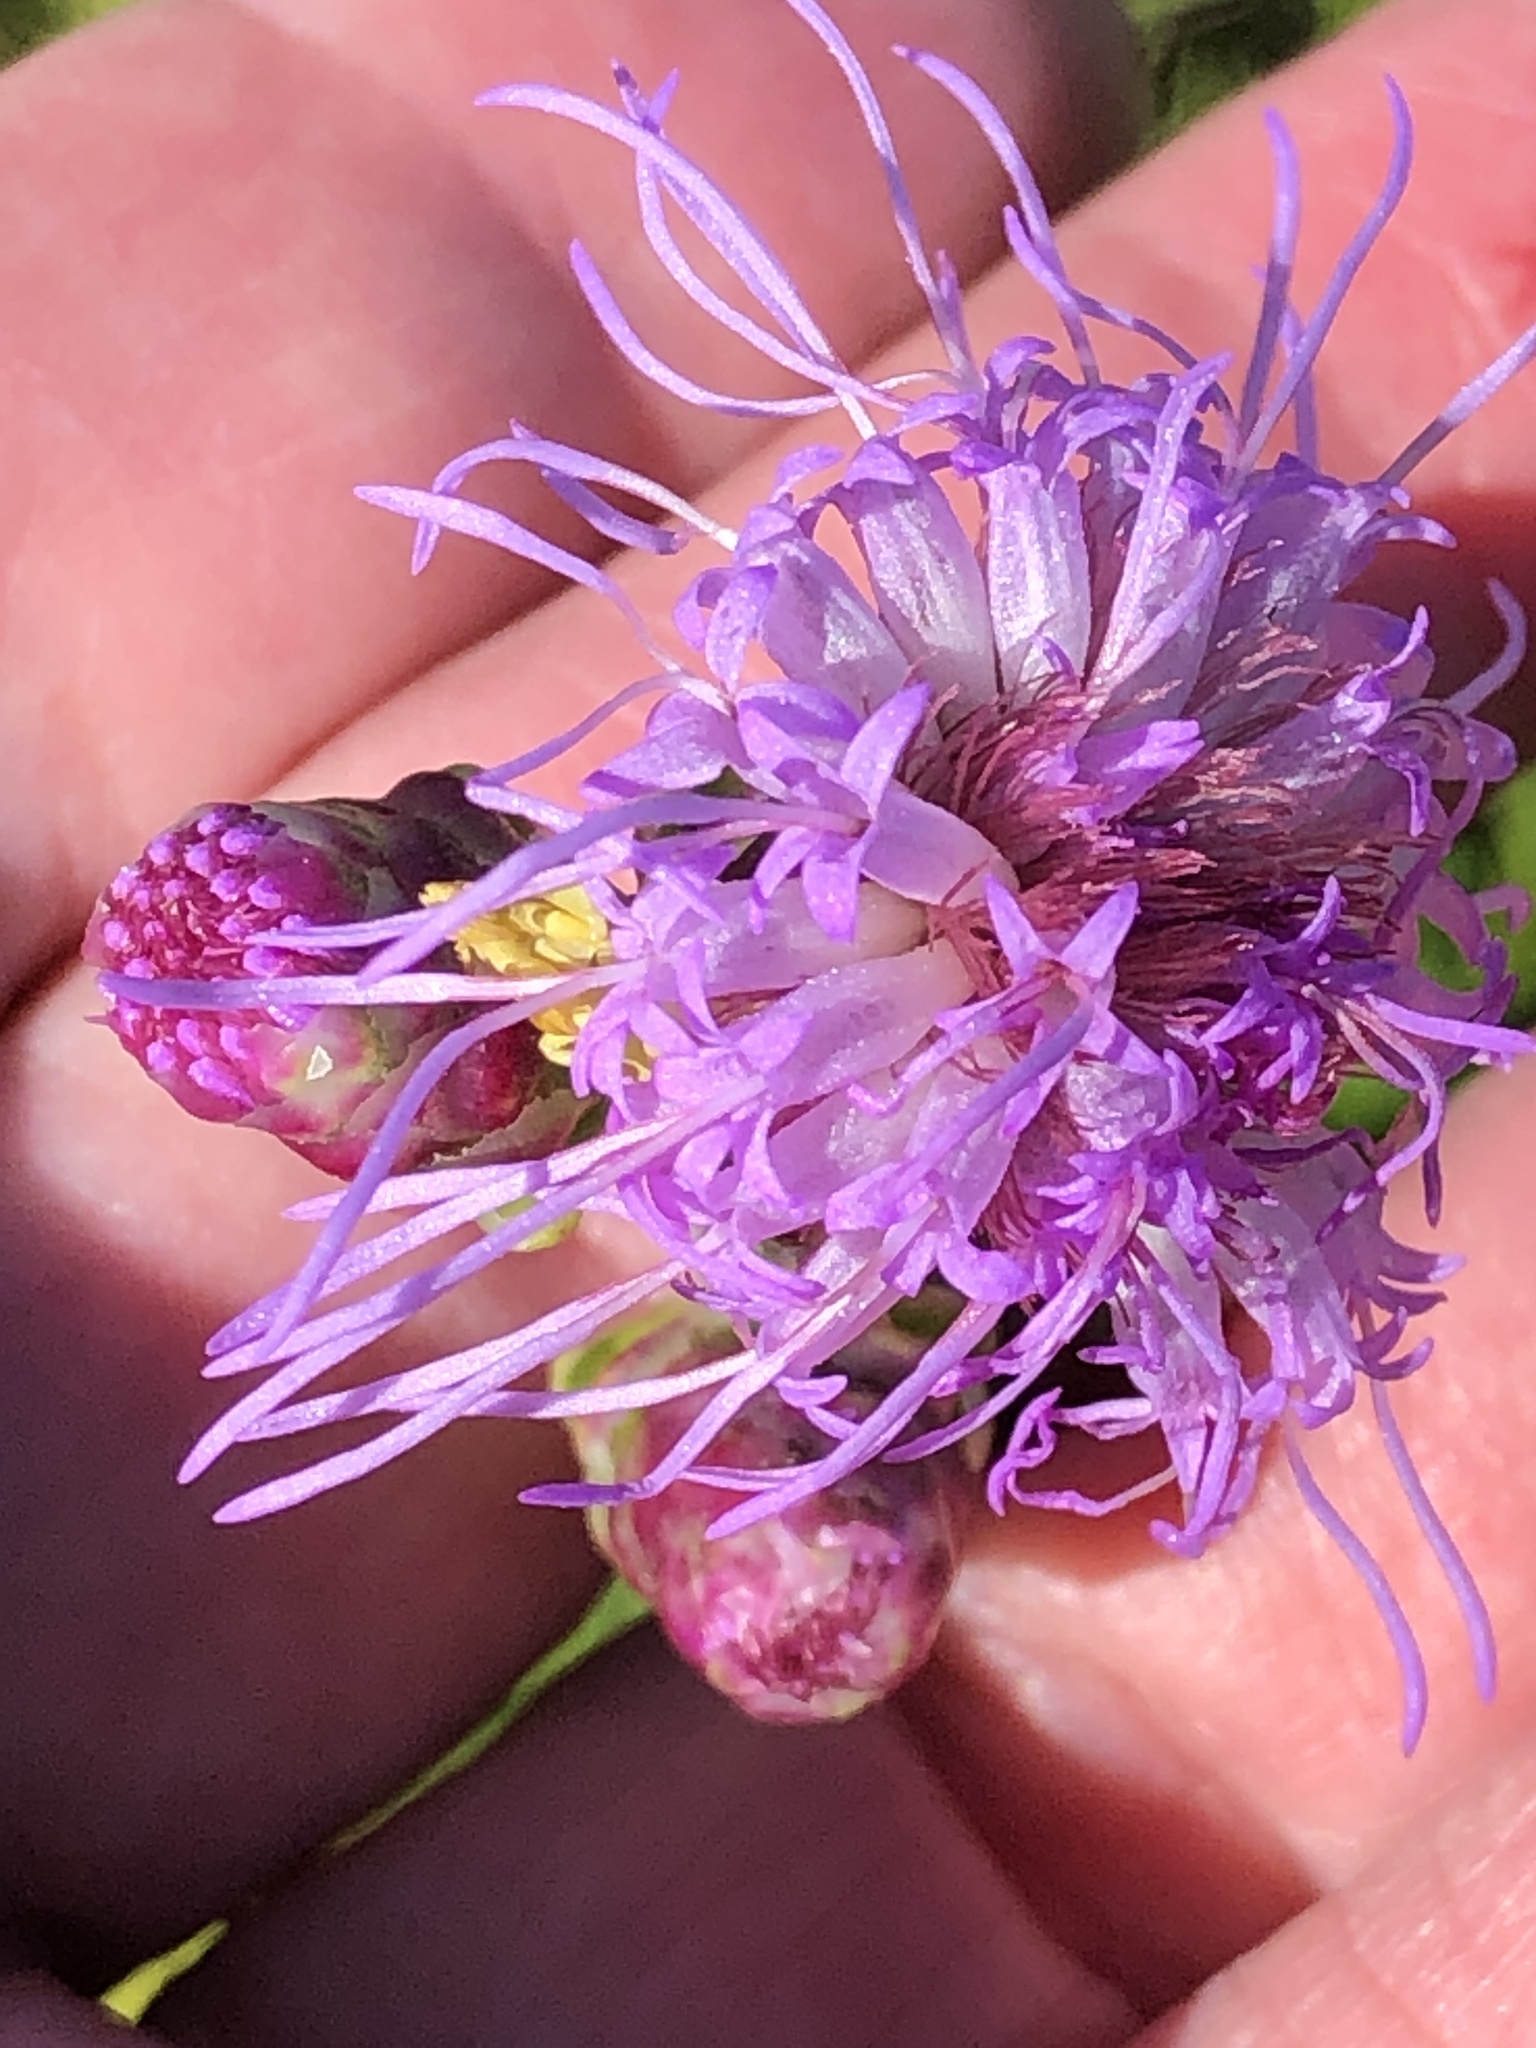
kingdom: Plantae
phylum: Tracheophyta
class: Magnoliopsida
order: Asterales
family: Asteraceae
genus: Liatris
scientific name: Liatris aspera
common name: Lacerate blazing-star
